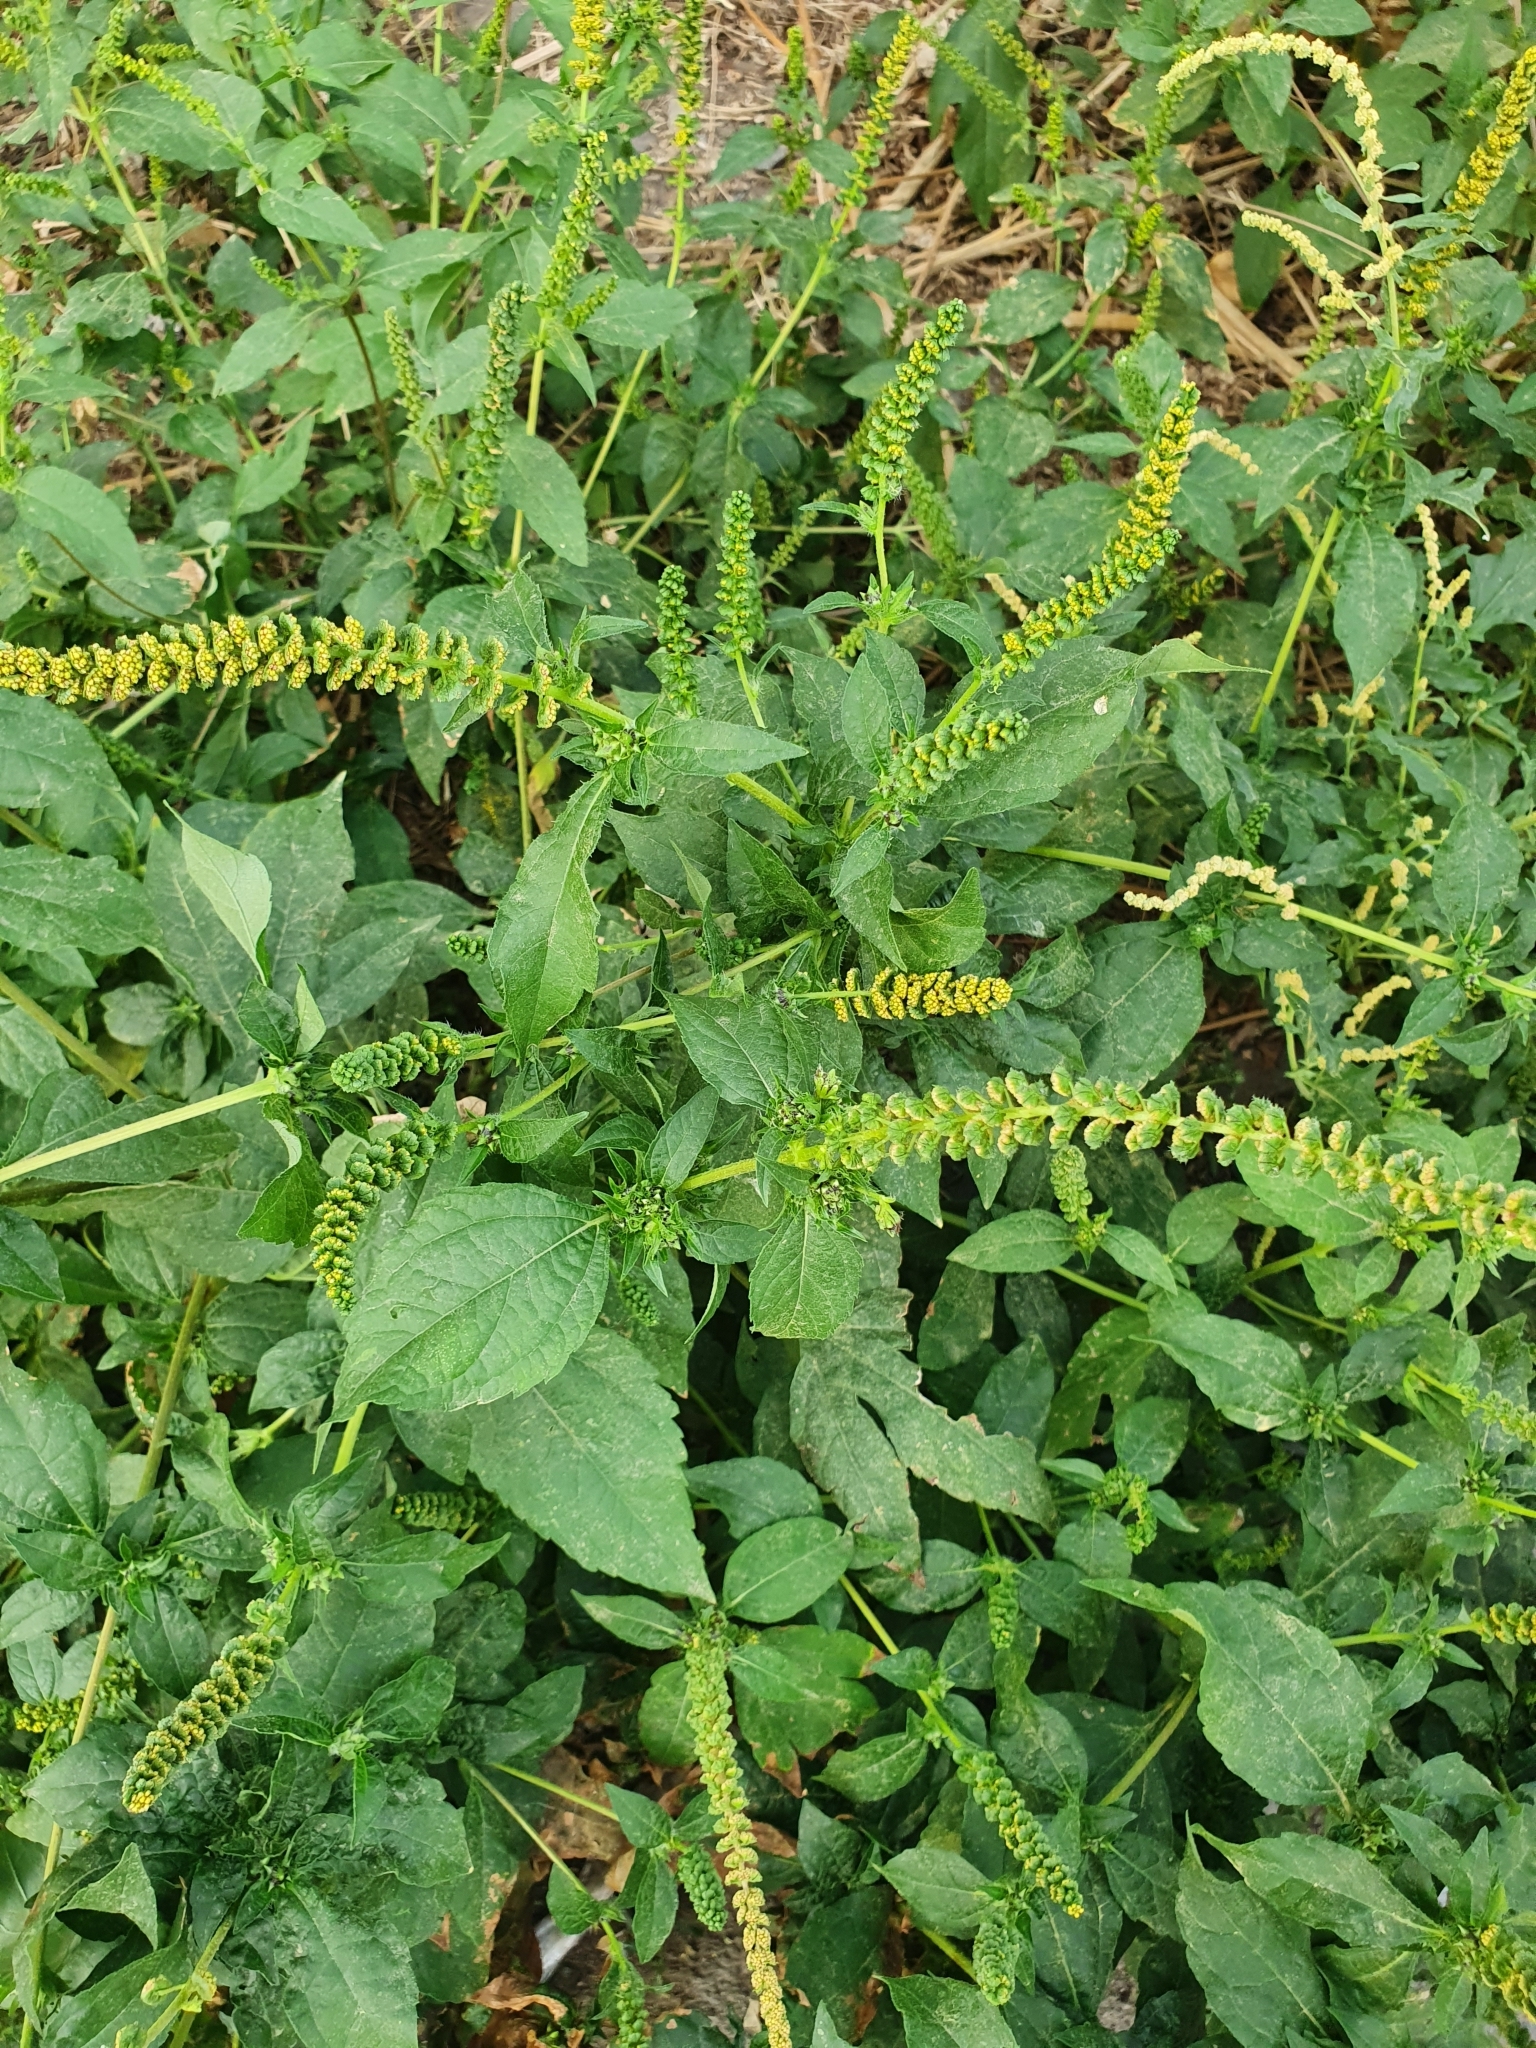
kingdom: Plantae
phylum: Tracheophyta
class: Magnoliopsida
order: Asterales
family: Asteraceae
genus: Ambrosia
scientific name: Ambrosia trifida
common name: Giant ragweed
